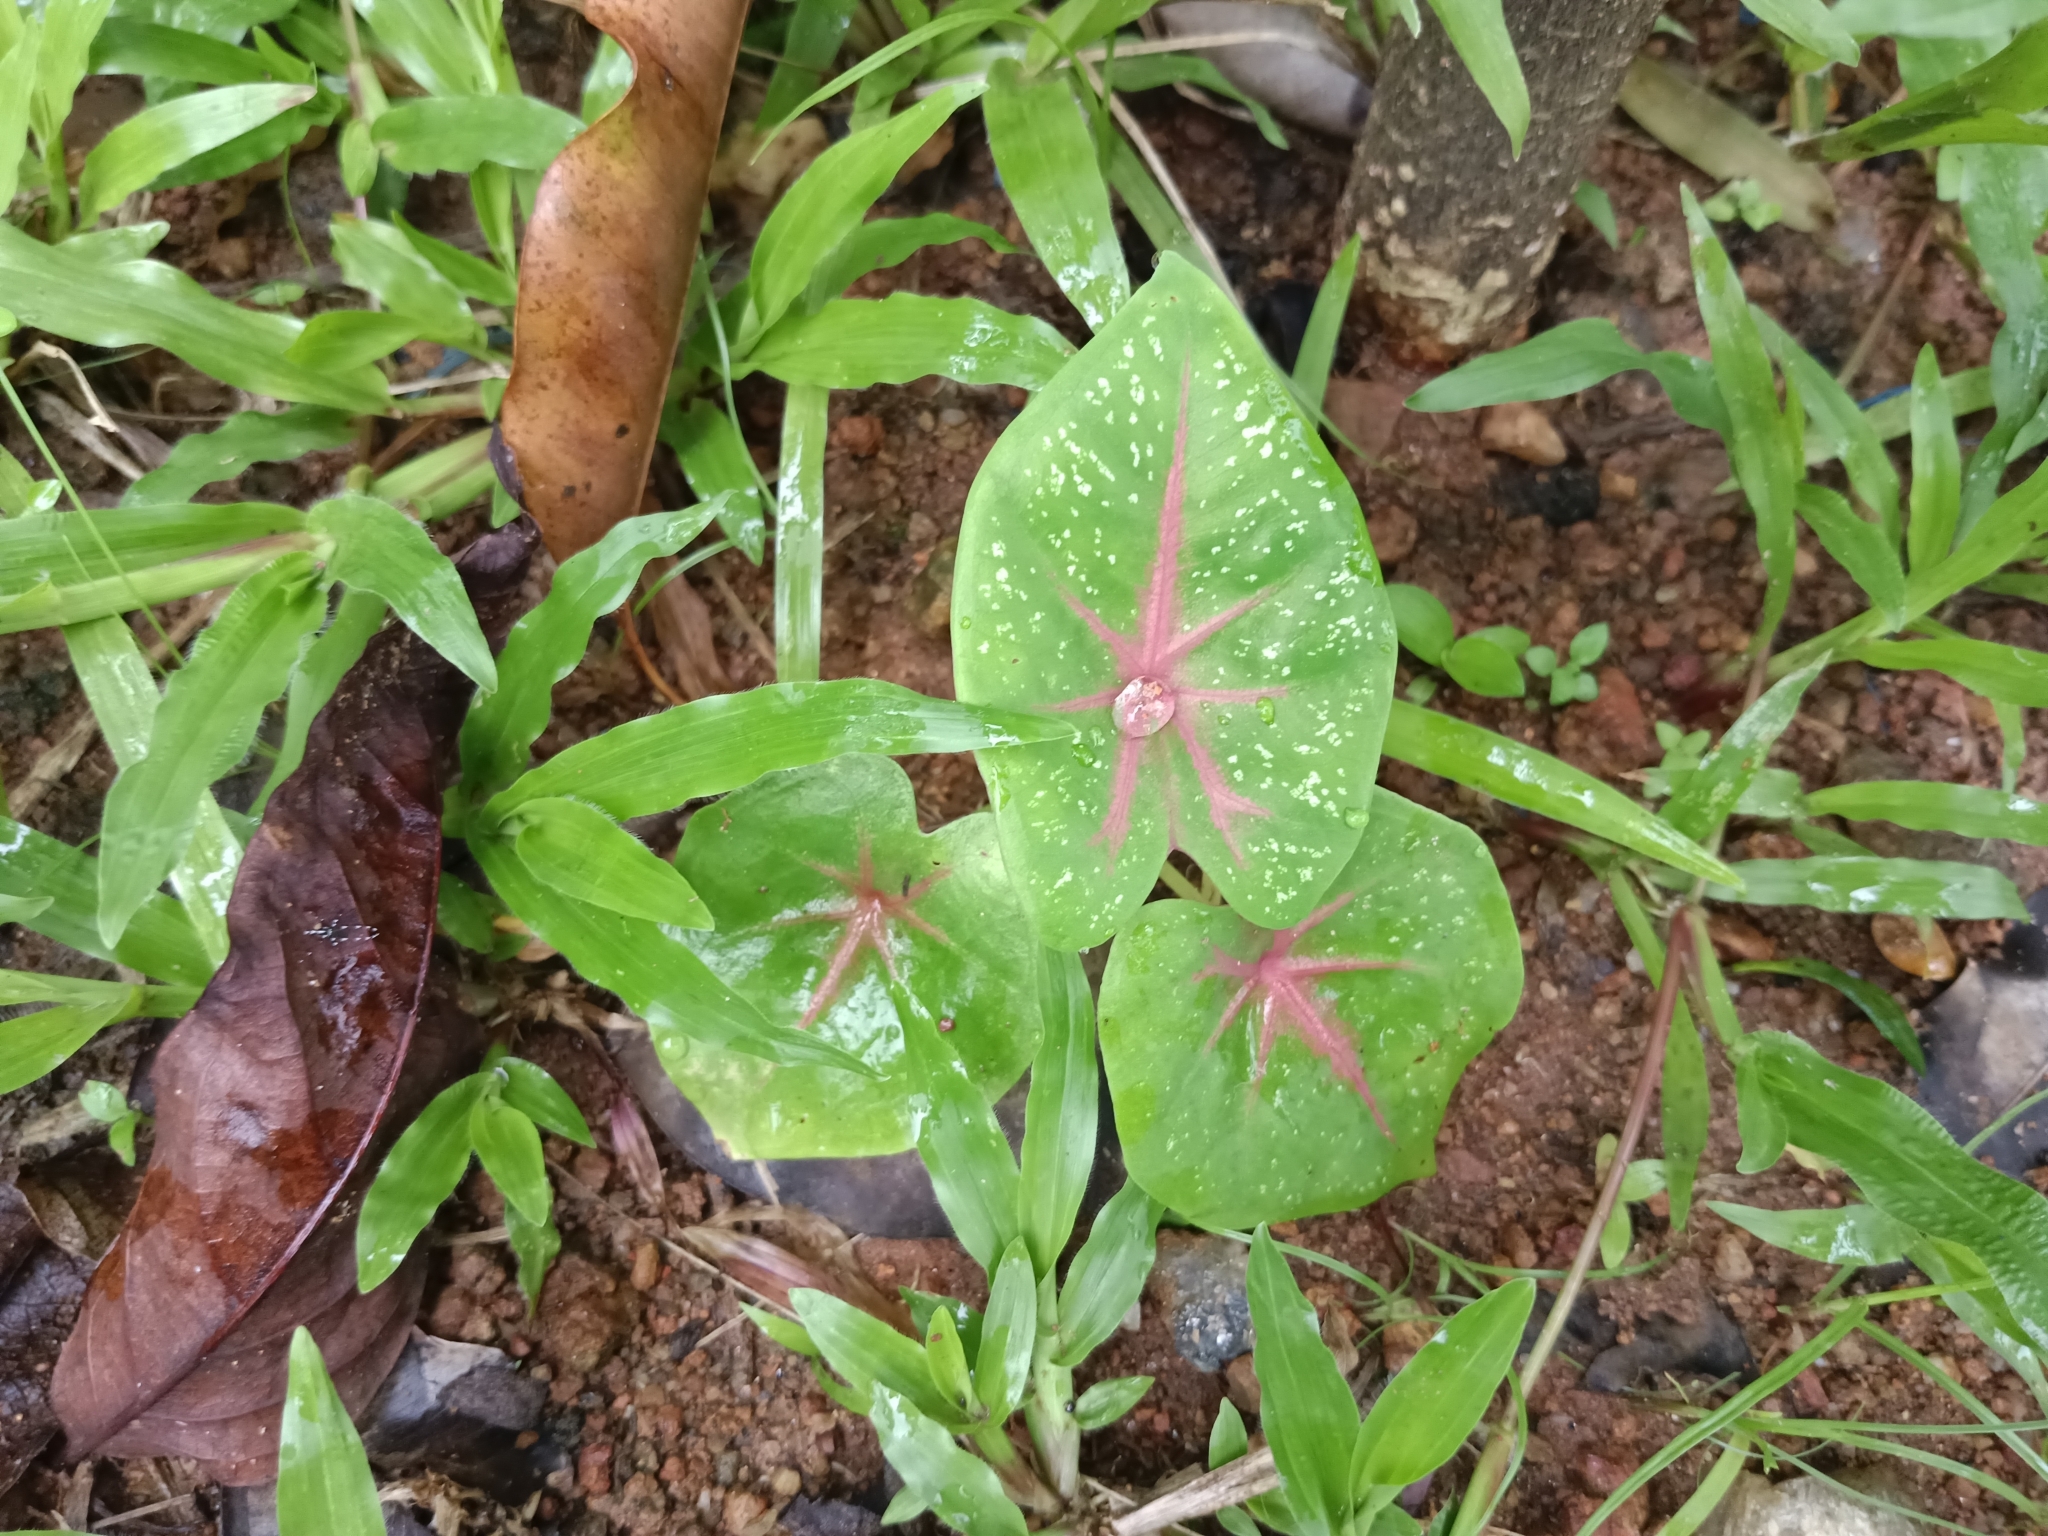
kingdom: Plantae
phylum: Tracheophyta
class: Liliopsida
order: Alismatales
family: Araceae
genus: Caladium
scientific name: Caladium bicolor
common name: Artist's pallet
